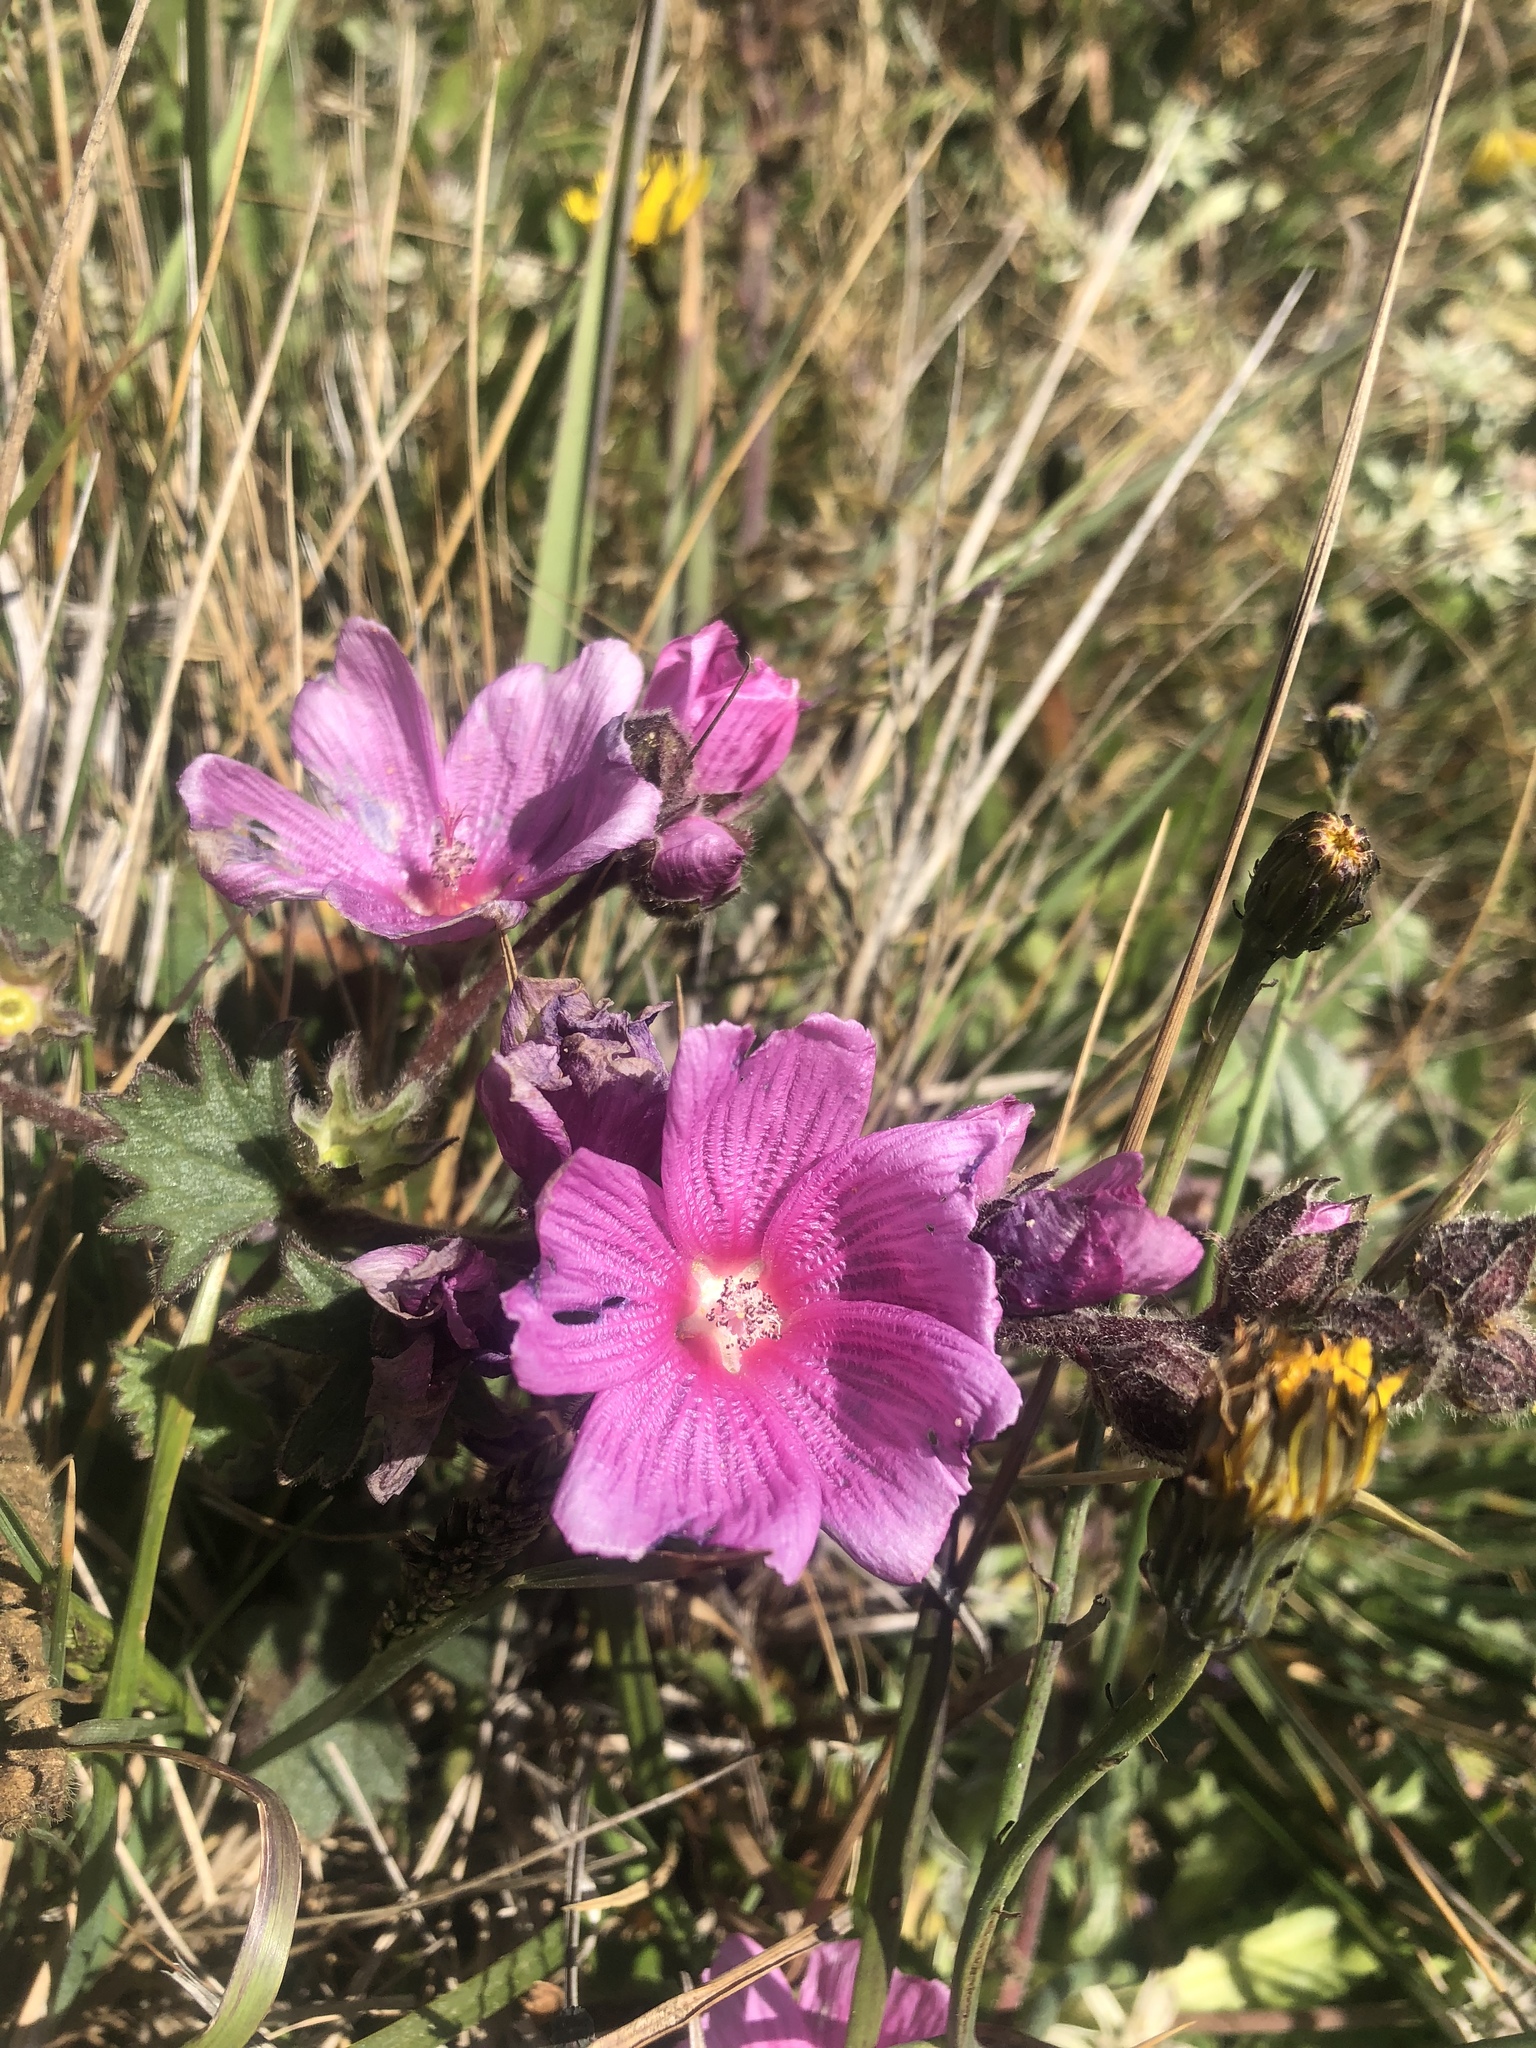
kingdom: Plantae
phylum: Tracheophyta
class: Magnoliopsida
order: Malvales
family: Malvaceae
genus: Sidalcea
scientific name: Sidalcea malviflora
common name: Greek mallow
